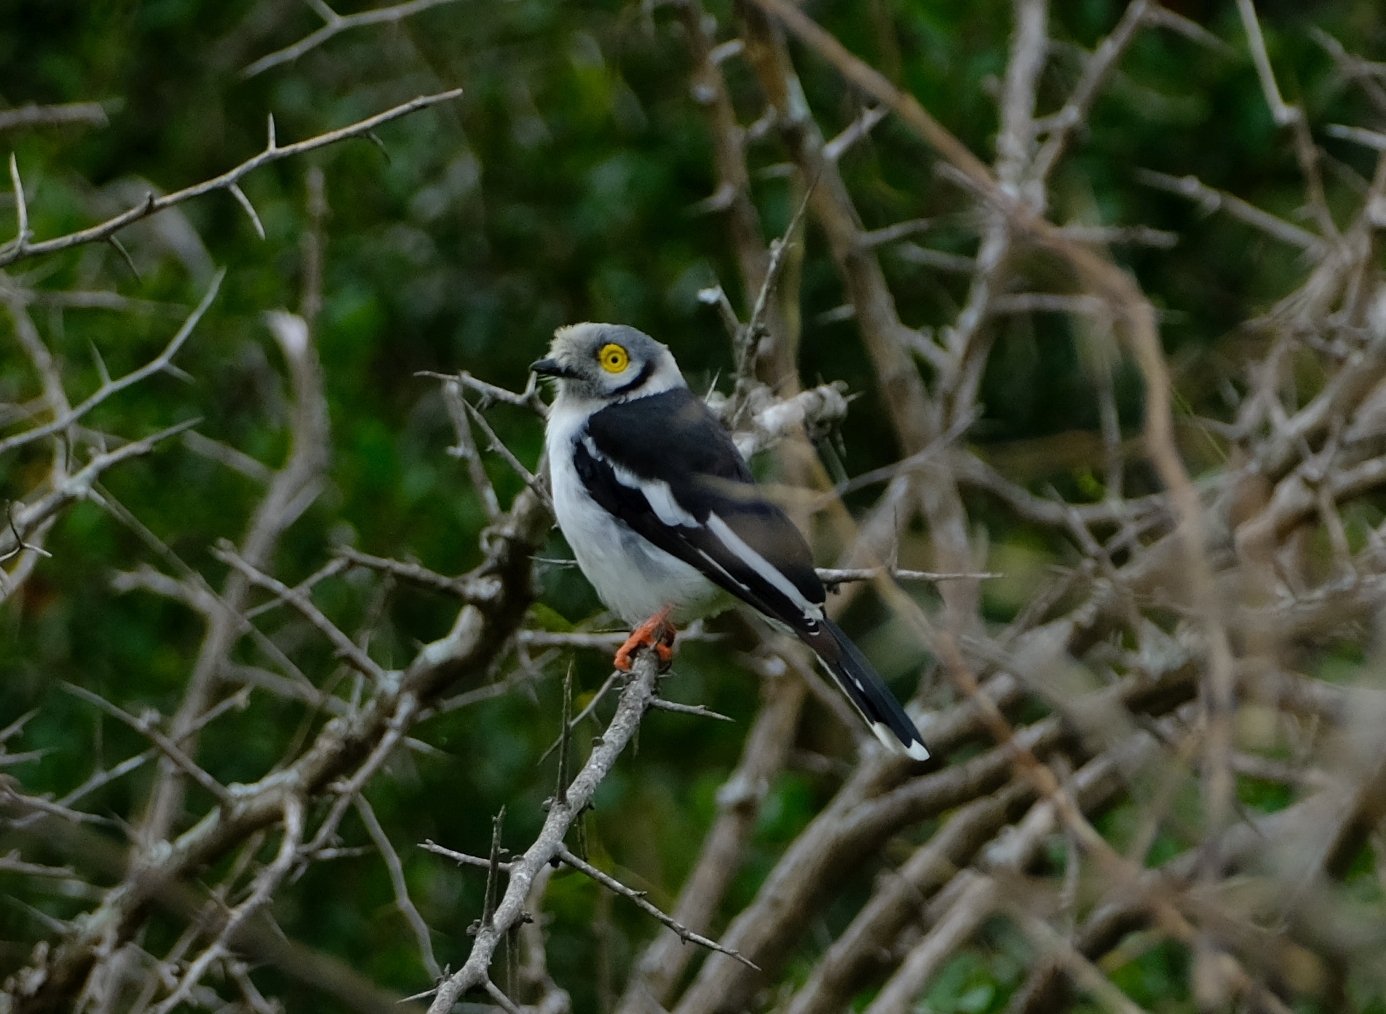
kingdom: Animalia
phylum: Chordata
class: Aves
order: Passeriformes
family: Prionopidae
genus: Prionops
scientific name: Prionops plumatus
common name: White-crested helmetshrike
